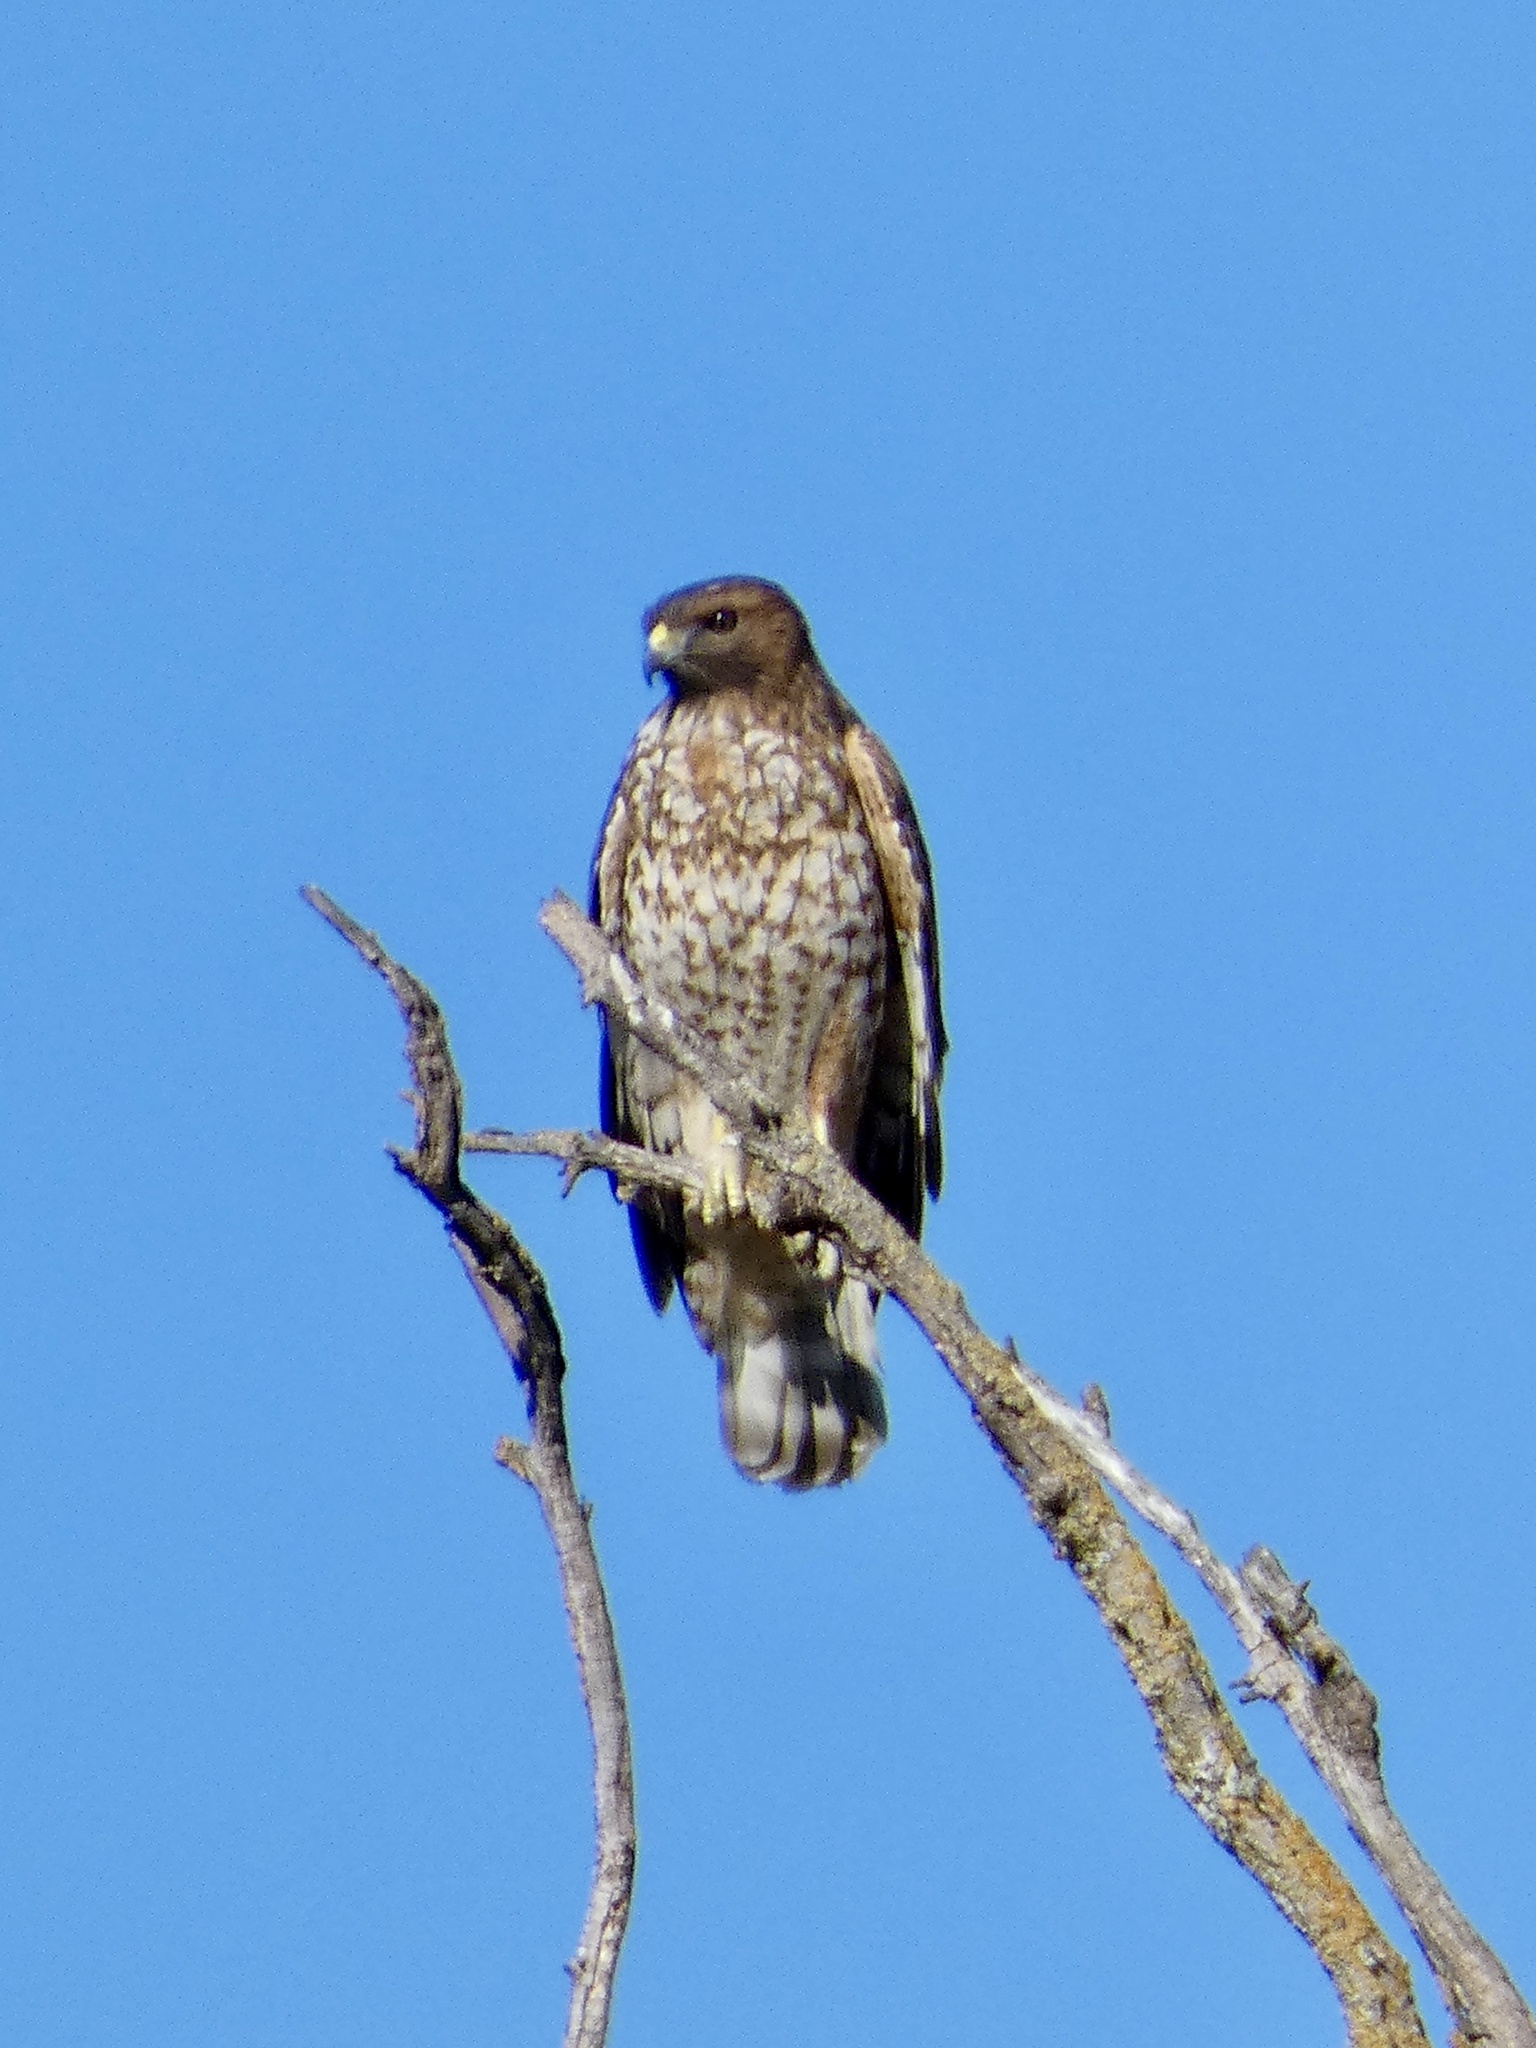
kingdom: Animalia
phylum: Chordata
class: Aves
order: Accipitriformes
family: Accipitridae
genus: Buteo
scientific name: Buteo lineatus
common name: Red-shouldered hawk
